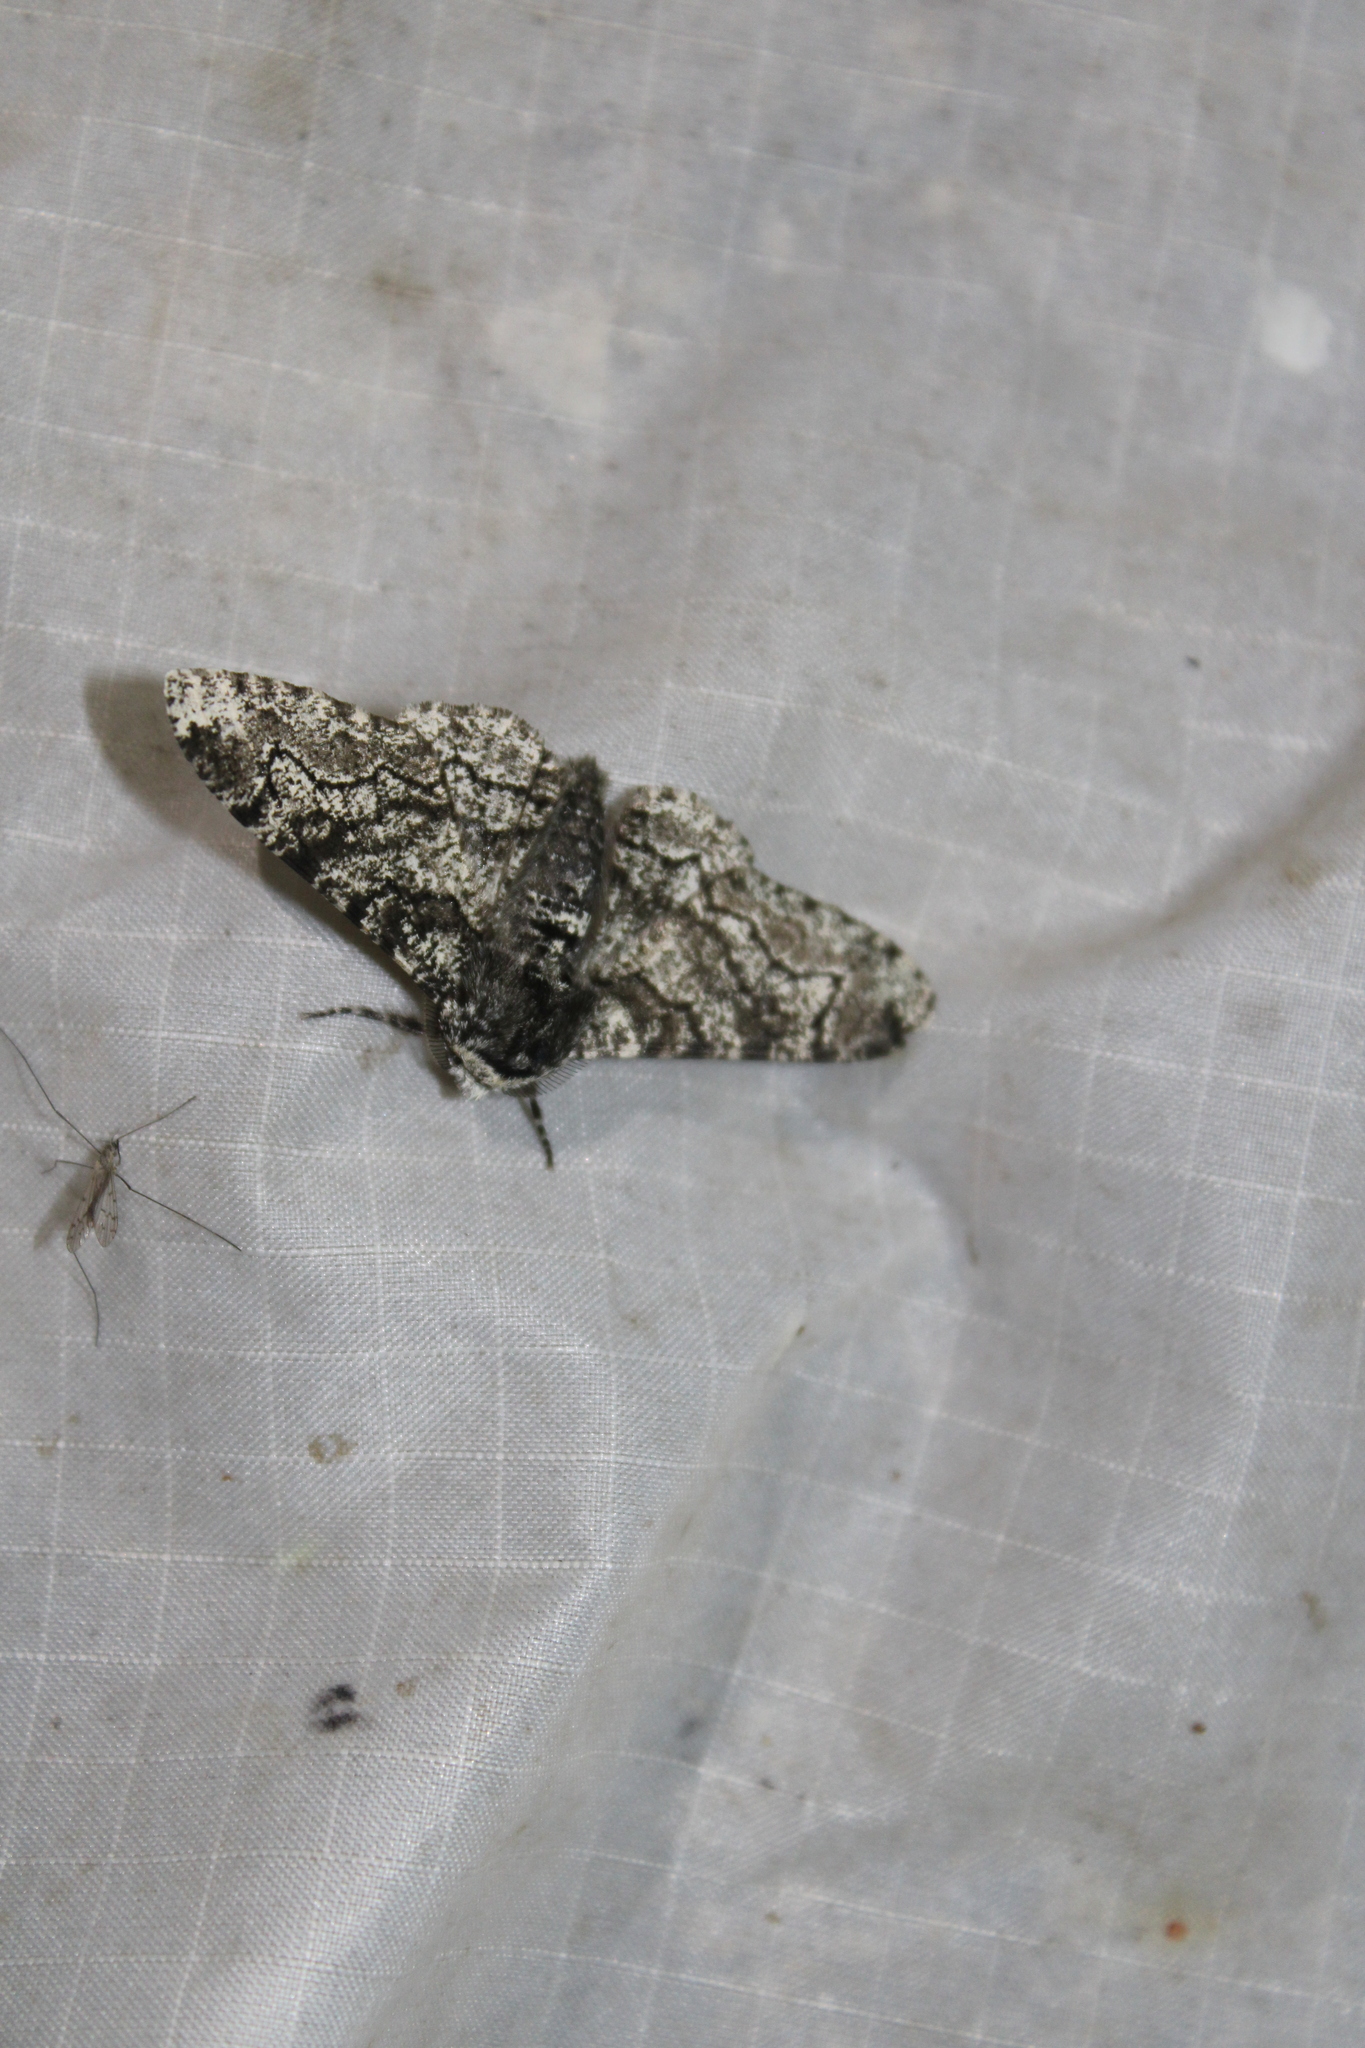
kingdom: Animalia
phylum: Arthropoda
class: Insecta
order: Lepidoptera
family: Geometridae
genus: Biston
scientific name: Biston betularia
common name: Peppered moth
